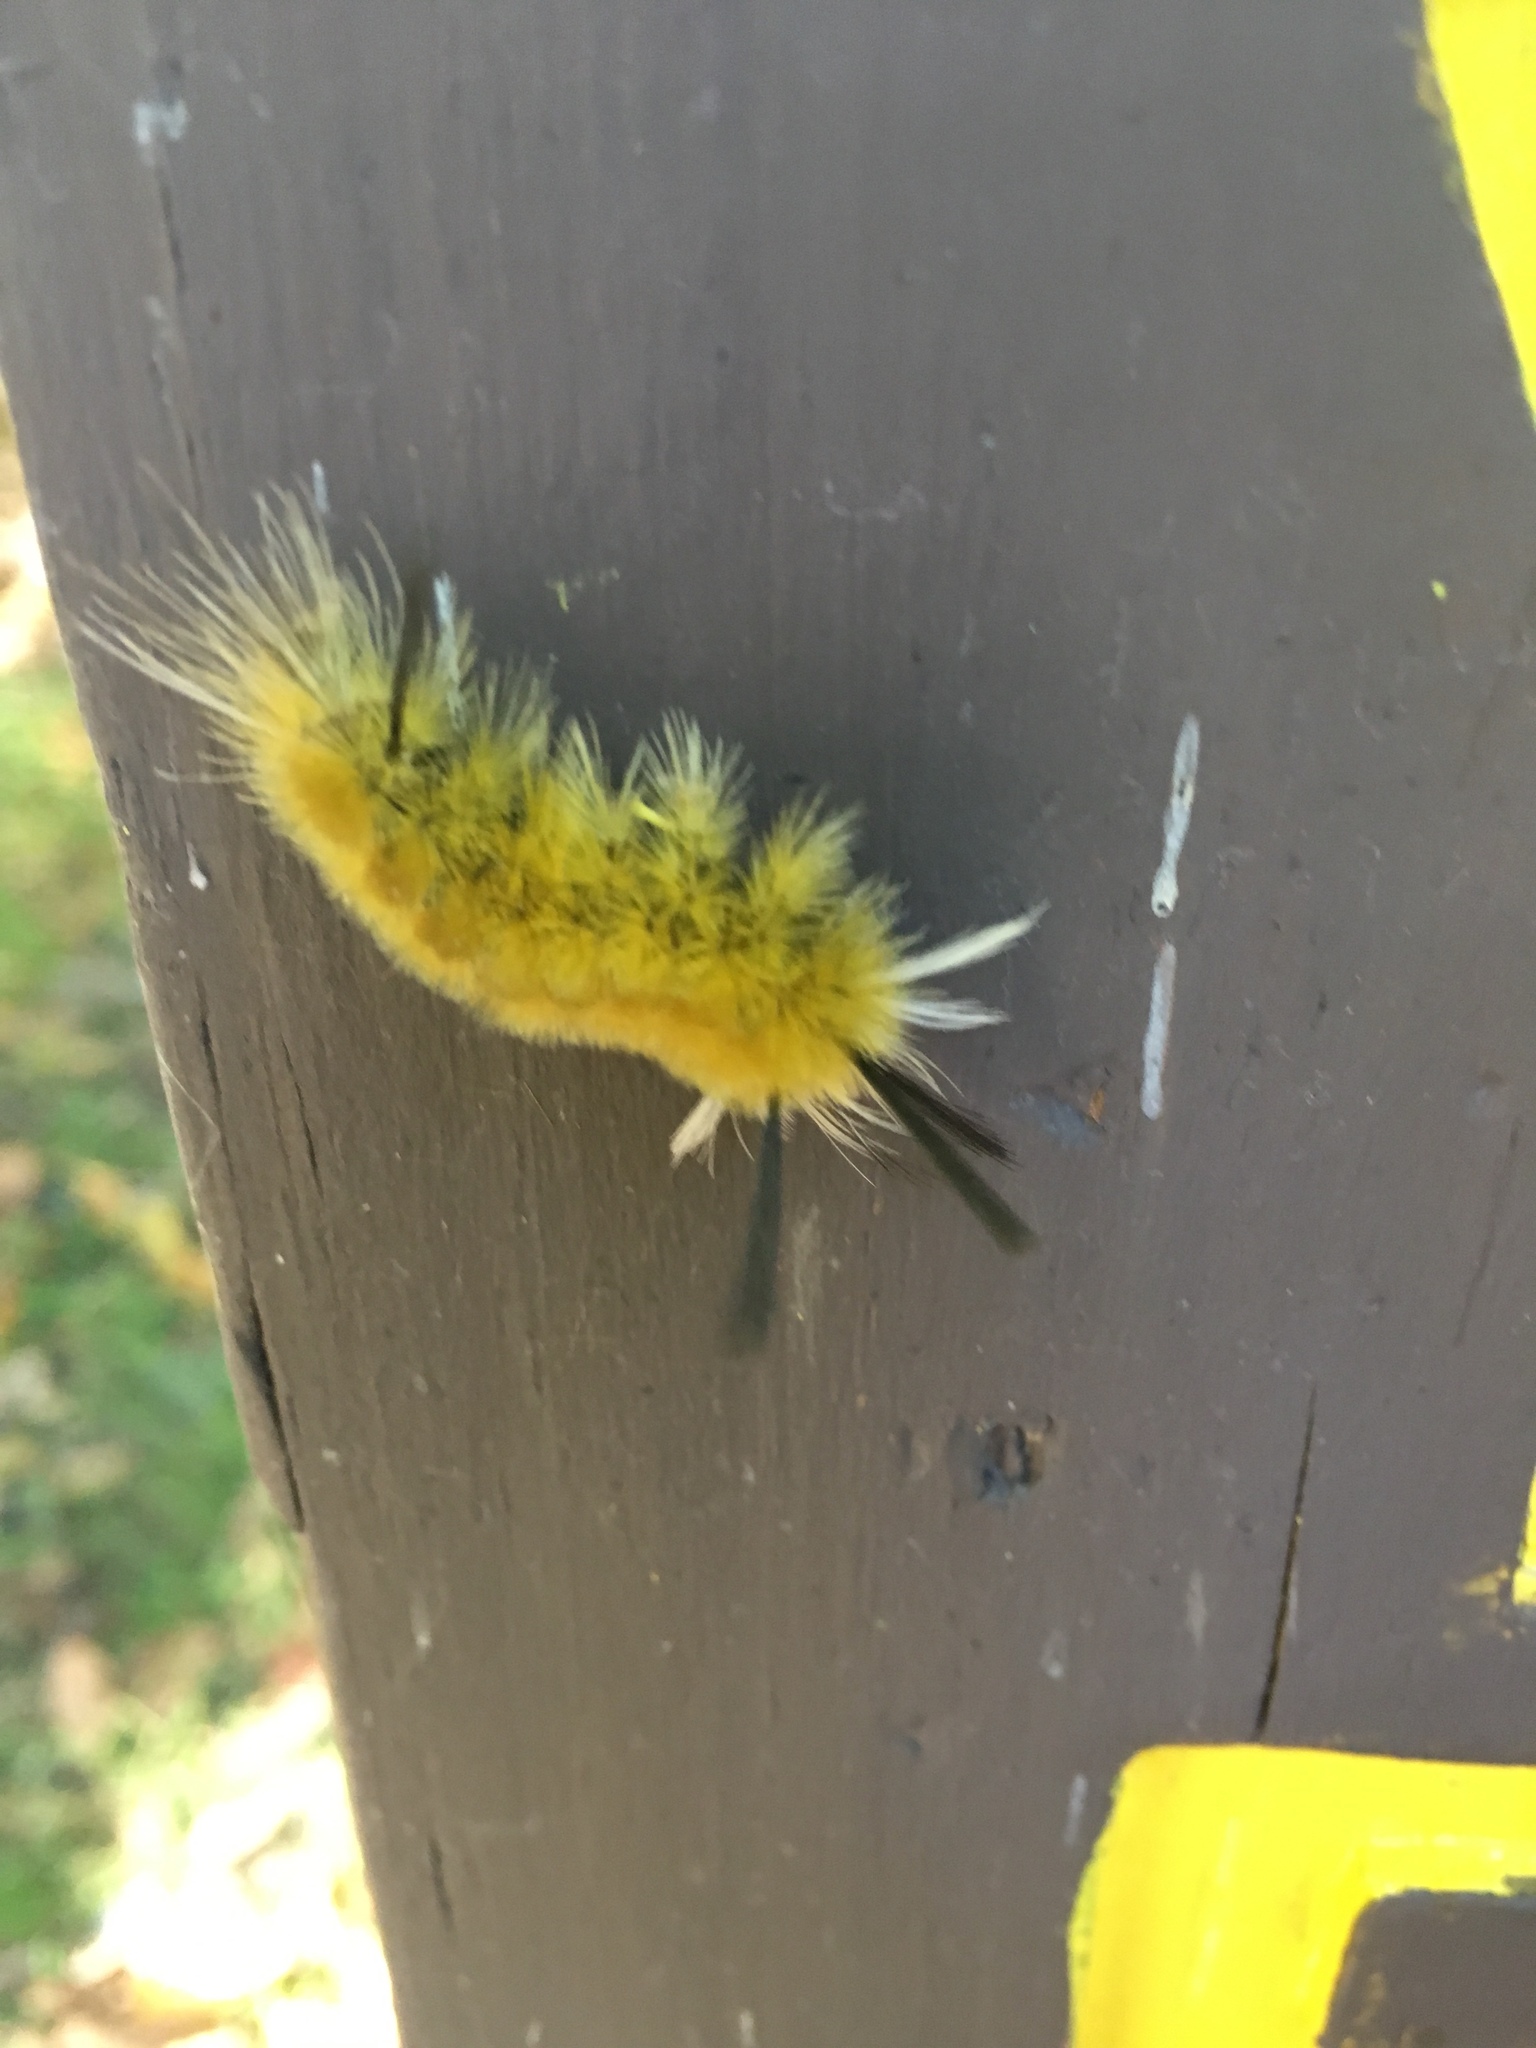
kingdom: Animalia
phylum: Arthropoda
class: Insecta
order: Lepidoptera
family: Erebidae
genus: Halysidota
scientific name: Halysidota tessellaris
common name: Banded tussock moth
